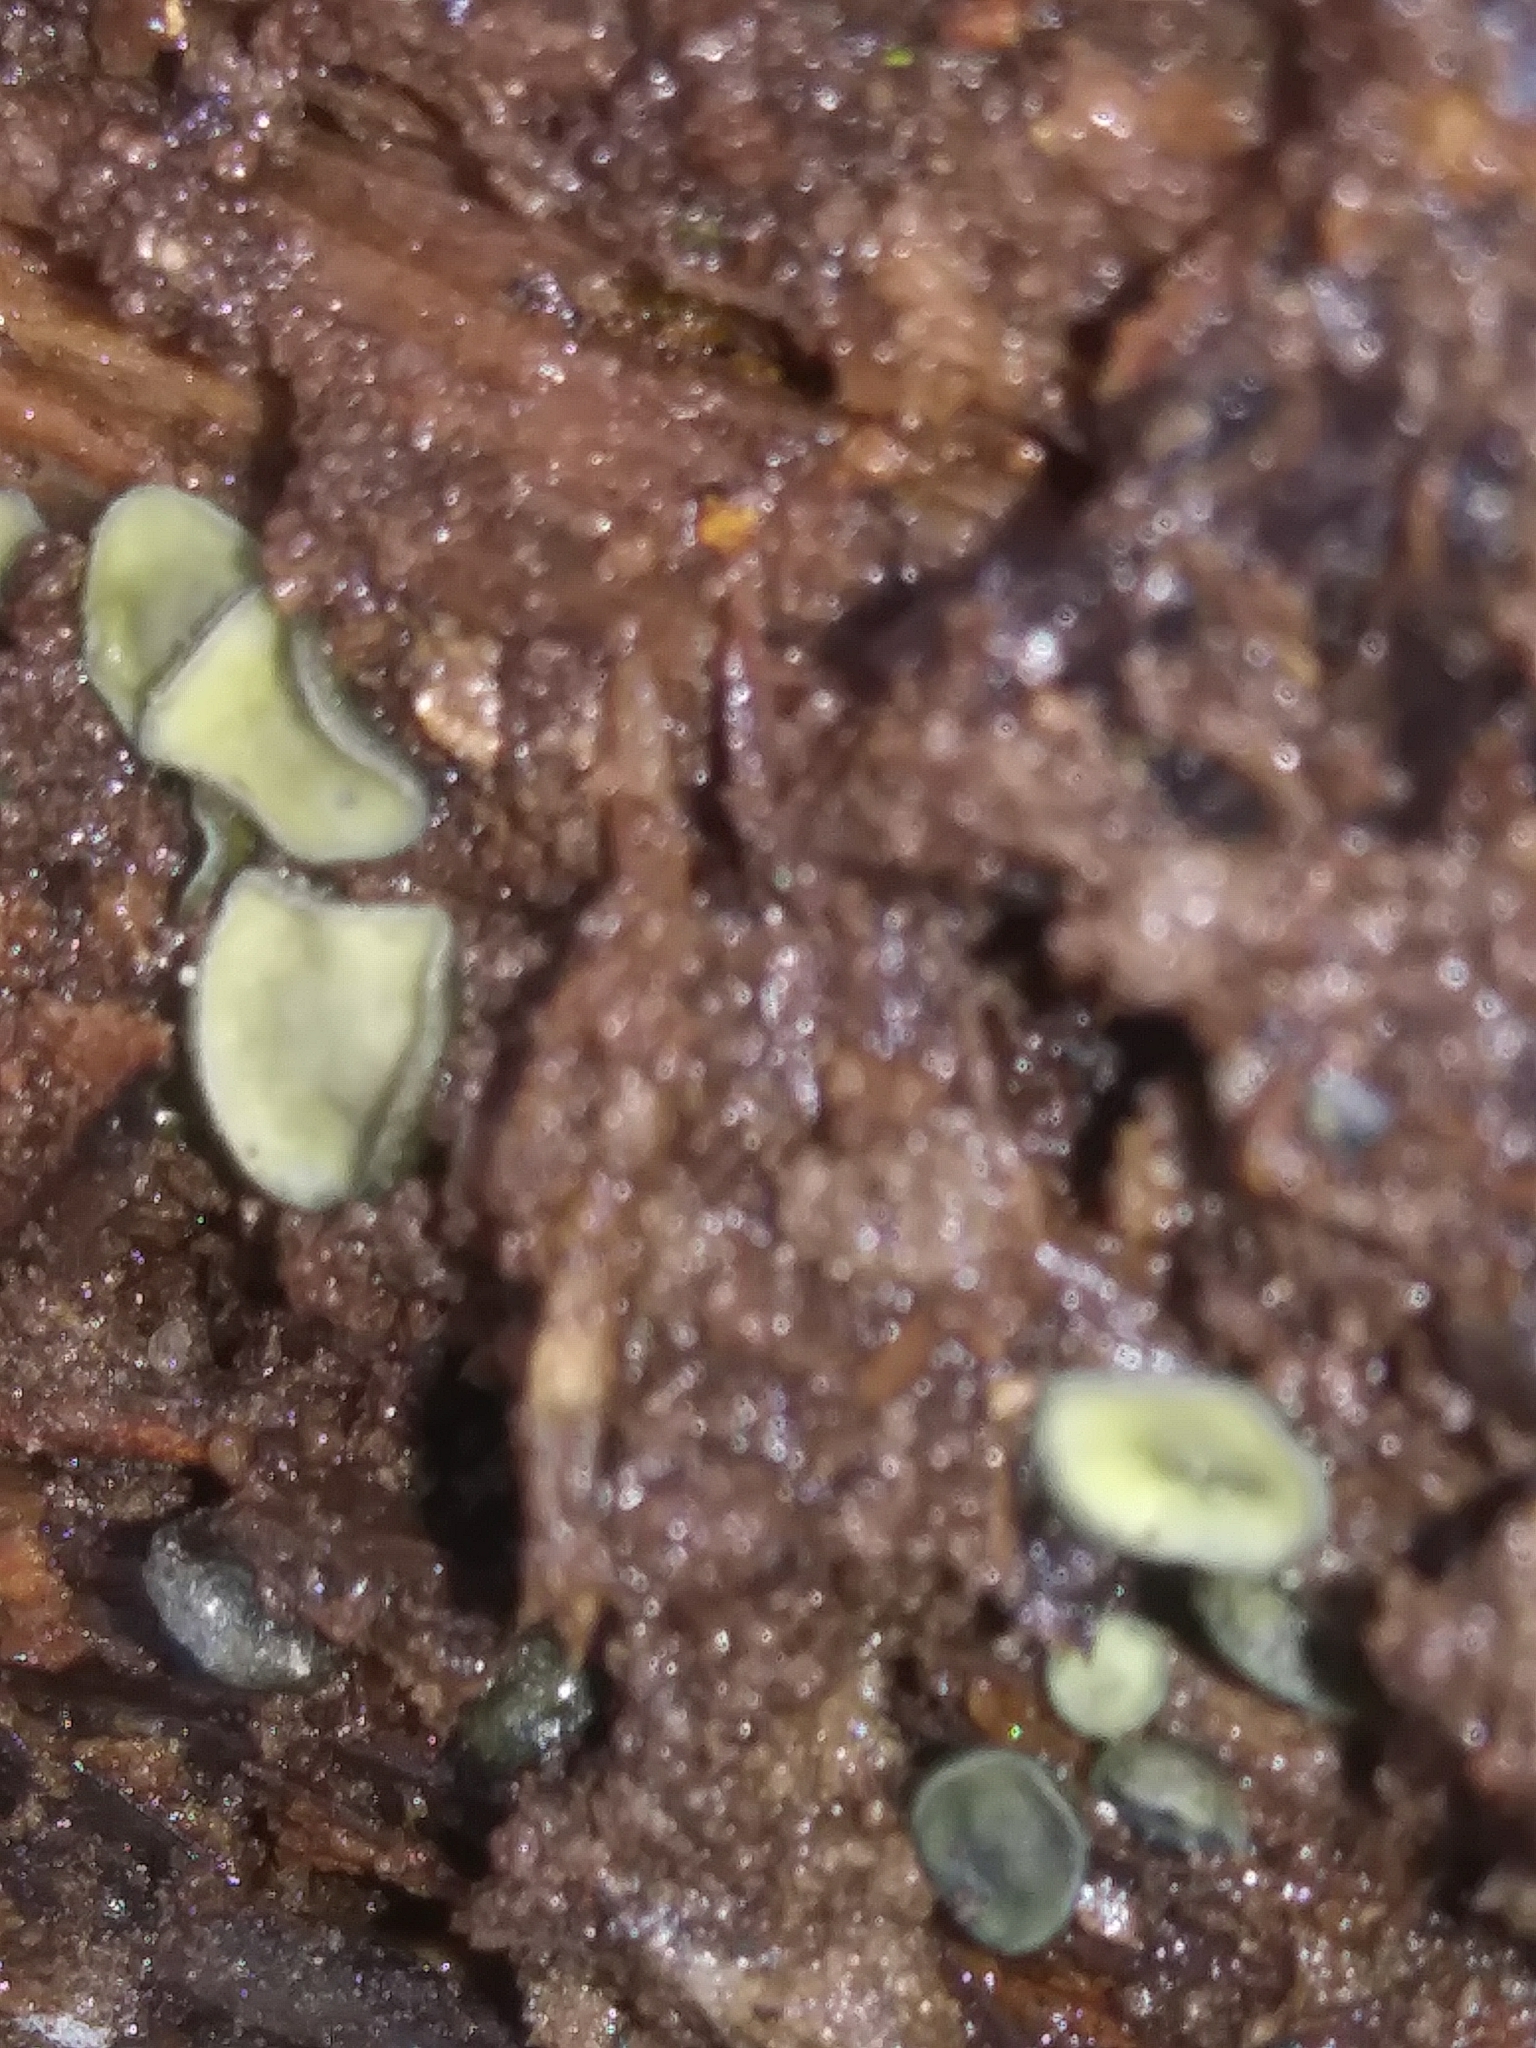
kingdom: Fungi
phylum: Ascomycota
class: Leotiomycetes
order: Helotiales
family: Chlorospleniaceae
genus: Chlorosplenium
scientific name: Chlorosplenium chlora
